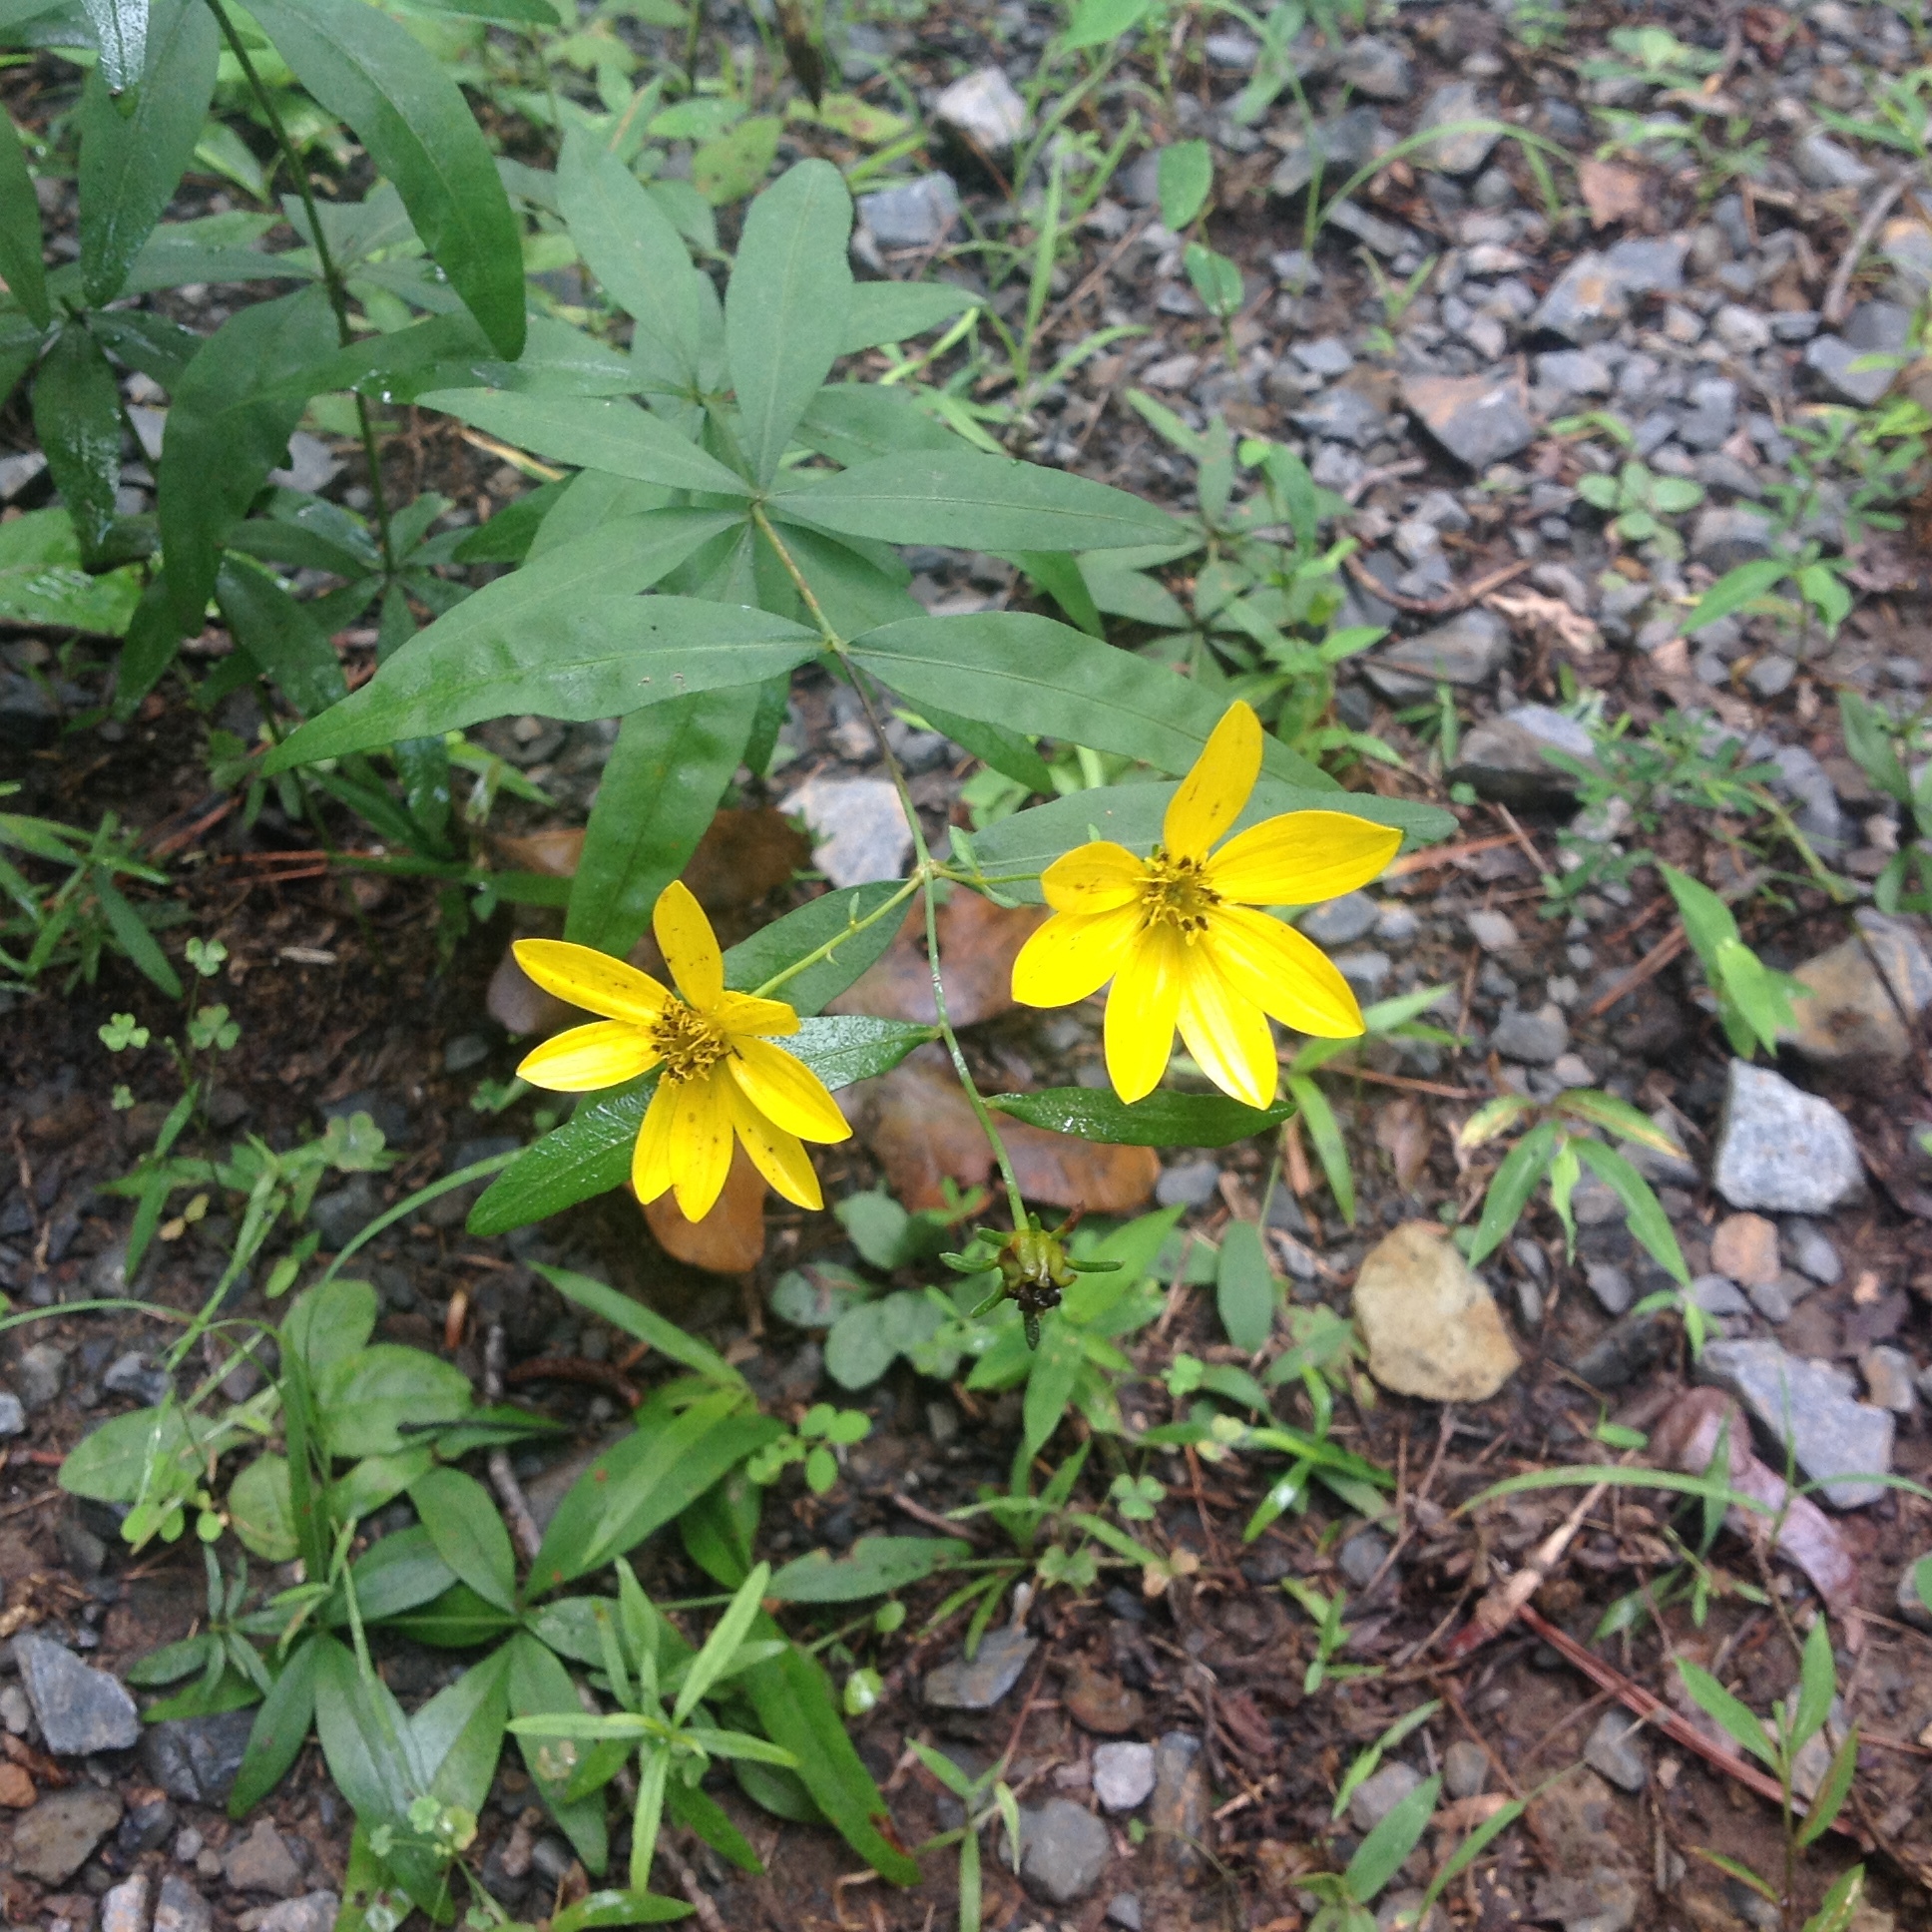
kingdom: Plantae
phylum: Tracheophyta
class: Magnoliopsida
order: Asterales
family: Asteraceae
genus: Coreopsis
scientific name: Coreopsis major
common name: Forest tickseed
